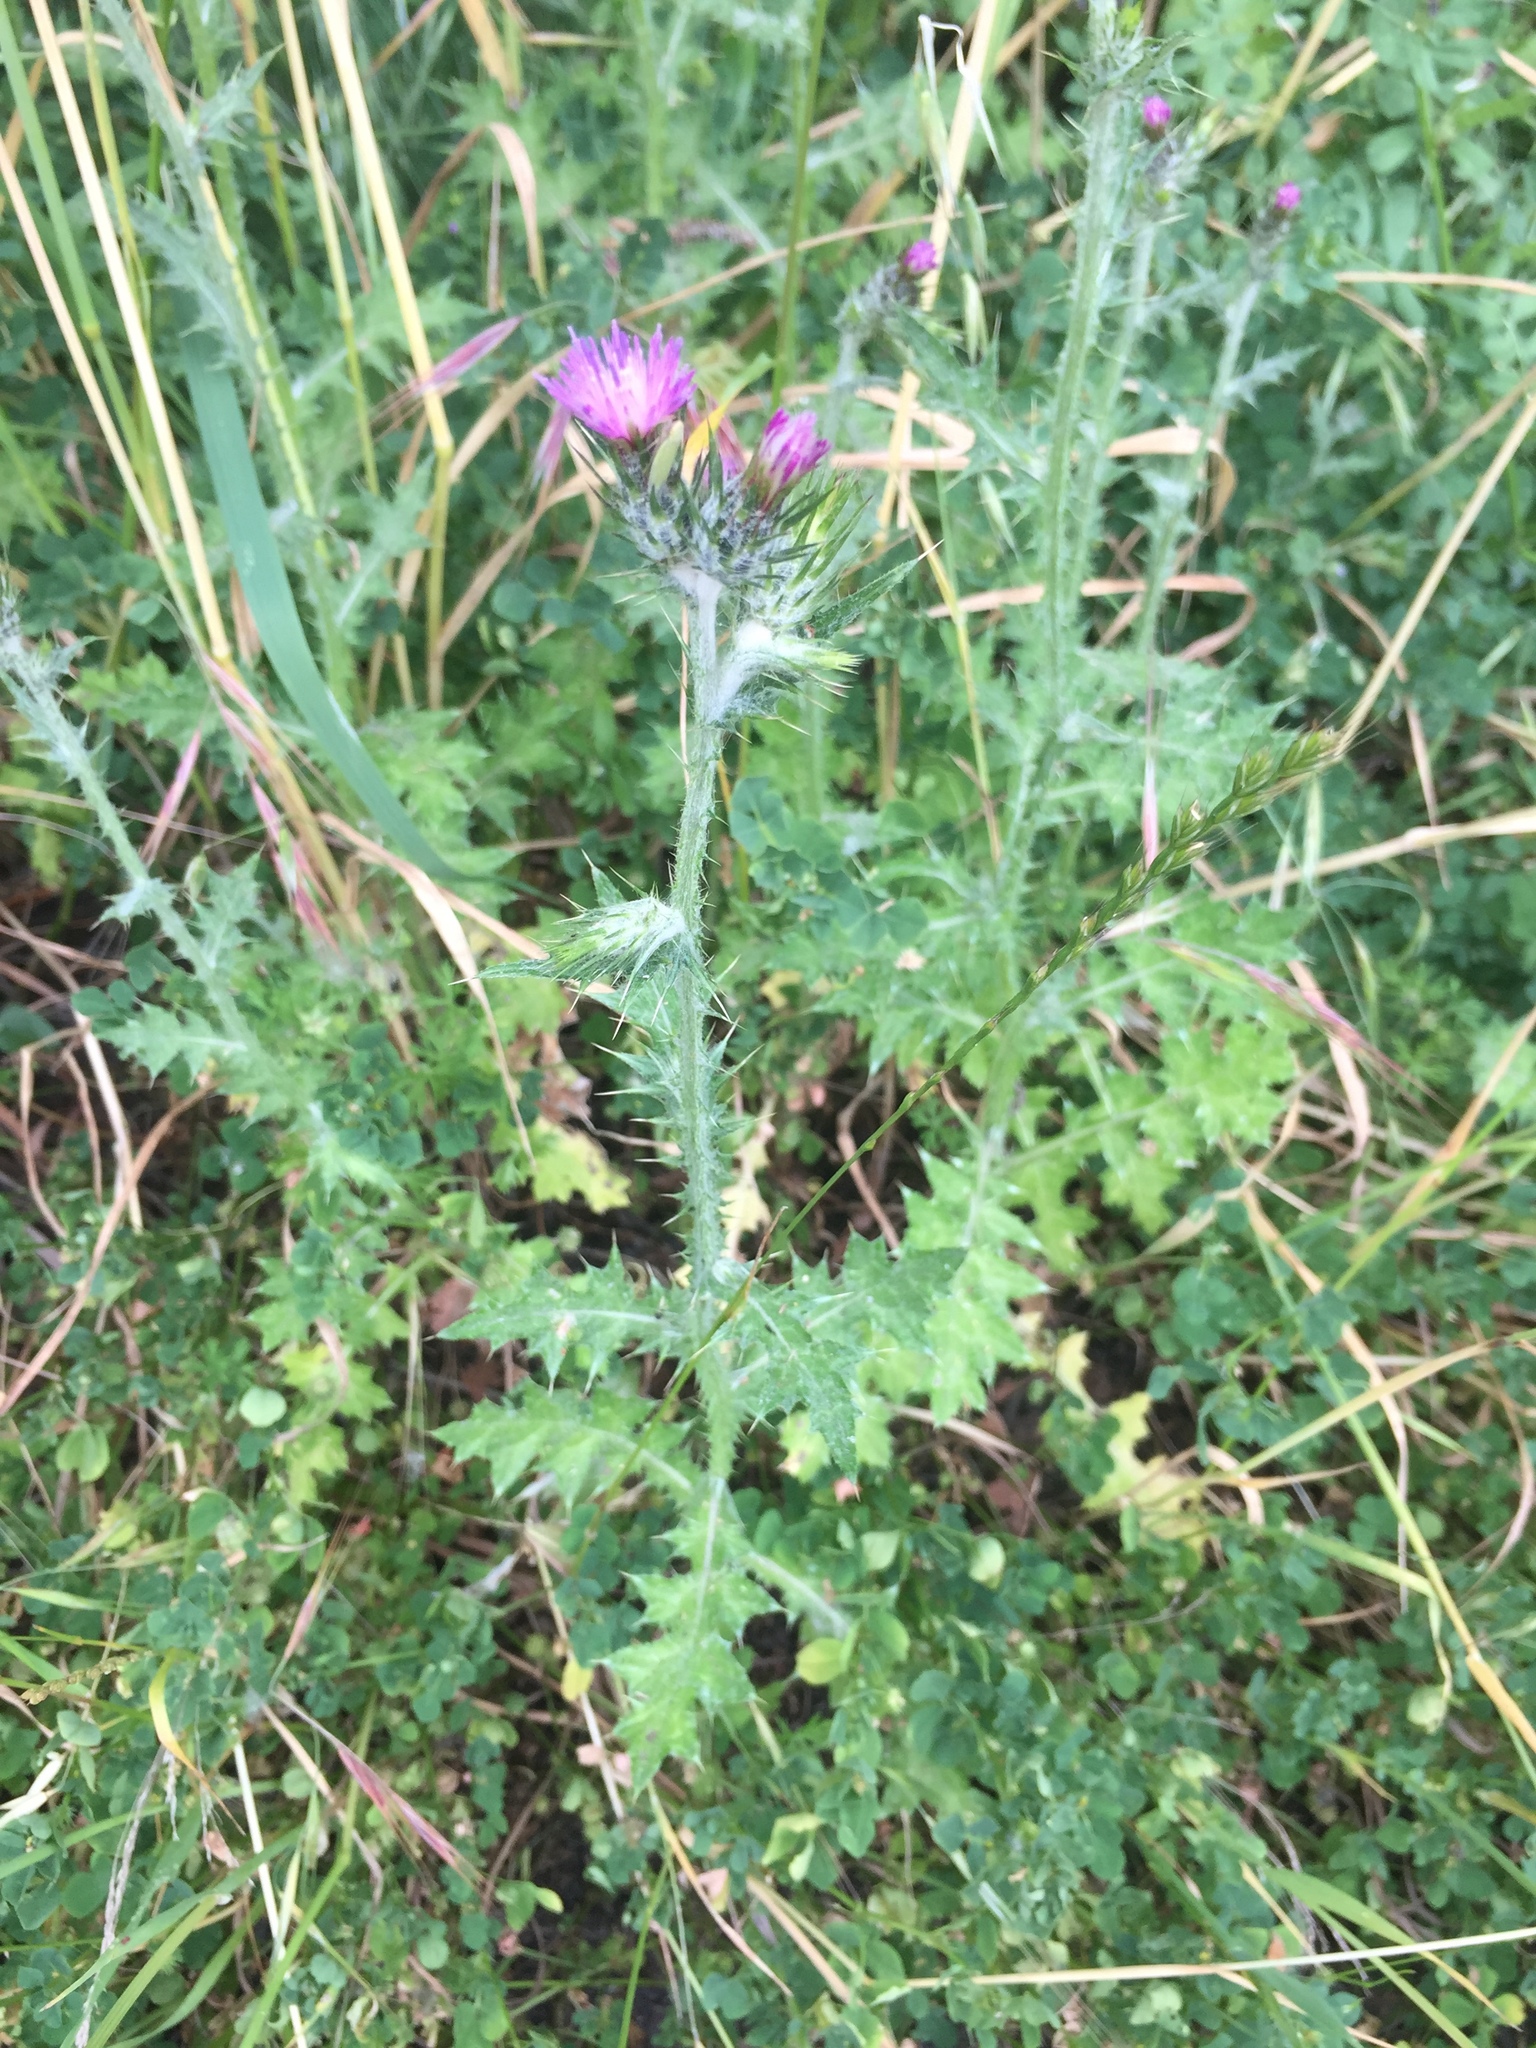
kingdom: Plantae
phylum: Tracheophyta
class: Magnoliopsida
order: Asterales
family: Asteraceae
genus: Carduus
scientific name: Carduus pycnocephalus
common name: Plymouth thistle
